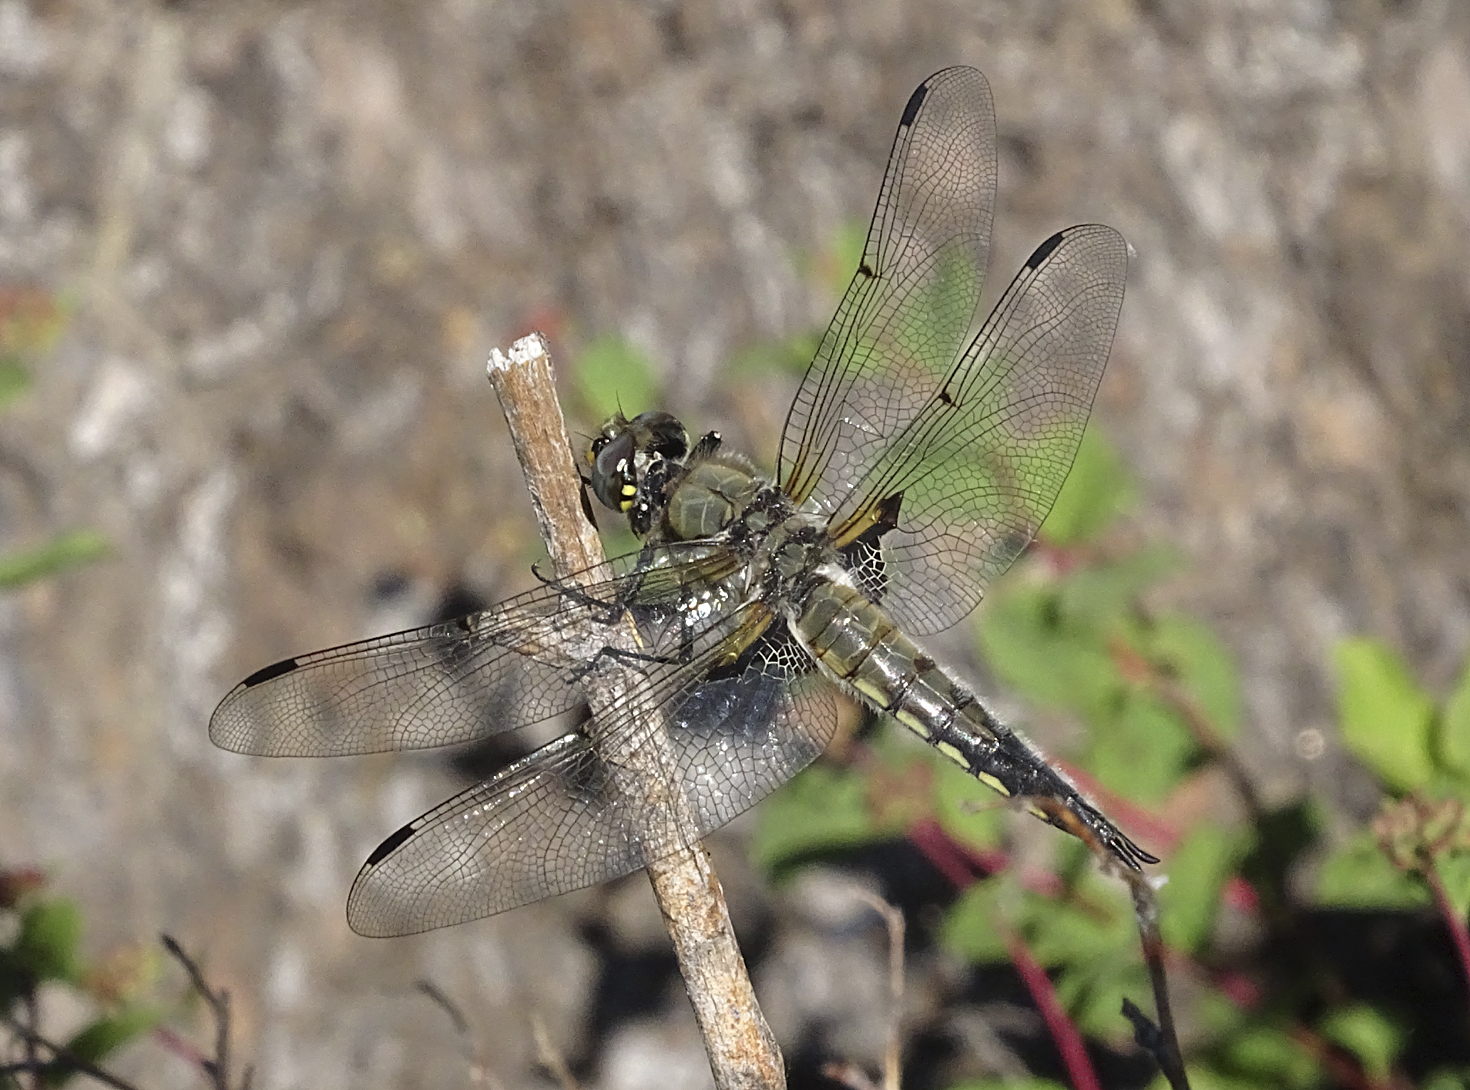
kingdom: Animalia
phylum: Arthropoda
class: Insecta
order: Odonata
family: Libellulidae
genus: Libellula
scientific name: Libellula quadrimaculata
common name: Four-spotted chaser
